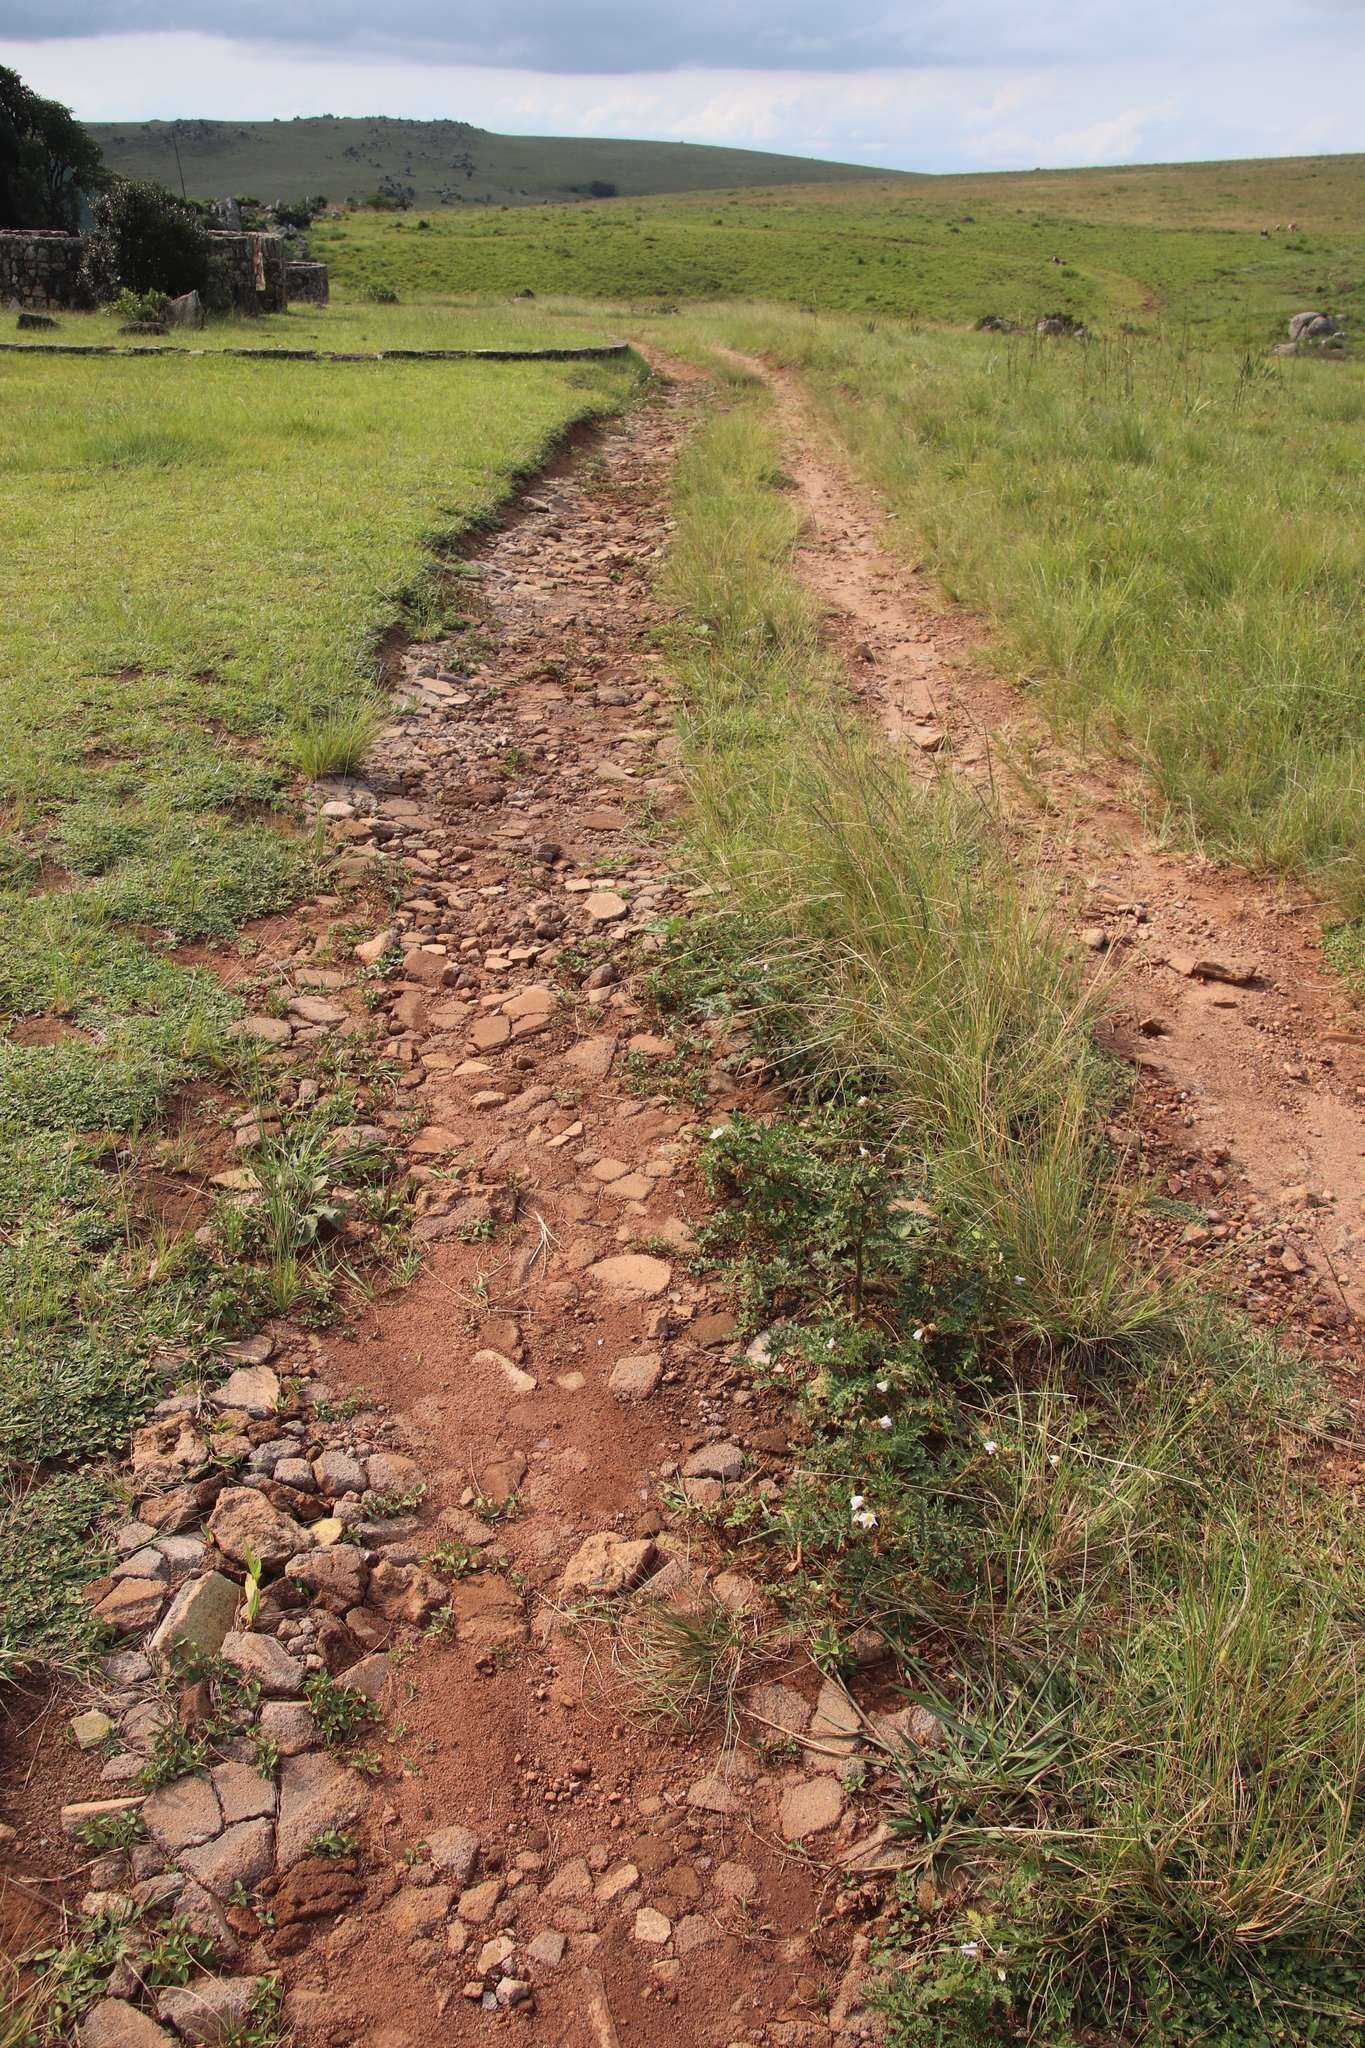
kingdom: Plantae
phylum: Tracheophyta
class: Magnoliopsida
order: Solanales
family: Solanaceae
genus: Solanum
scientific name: Solanum sisymbriifolium
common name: Red buffalo-bur
